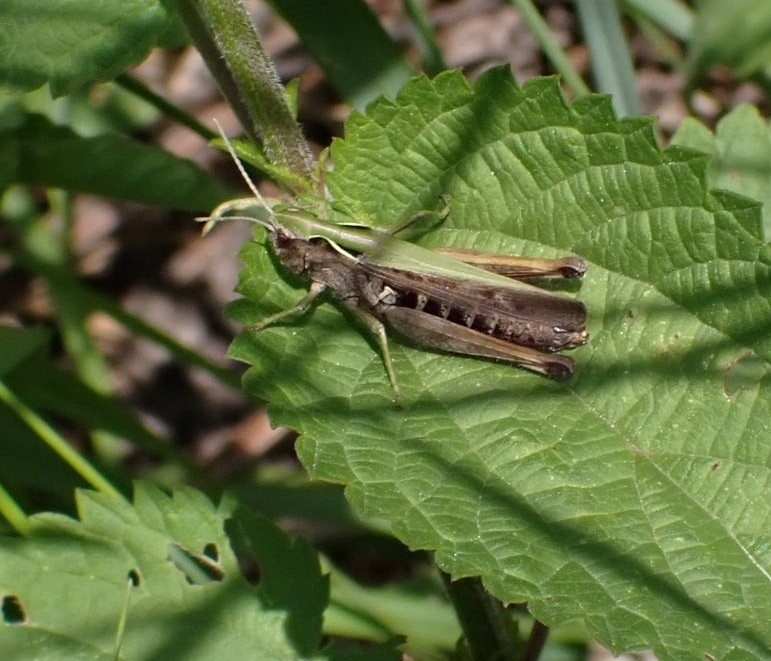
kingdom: Animalia
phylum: Arthropoda
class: Insecta
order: Orthoptera
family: Acrididae
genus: Omocestus
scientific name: Omocestus viridulus
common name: Common green grasshopper
